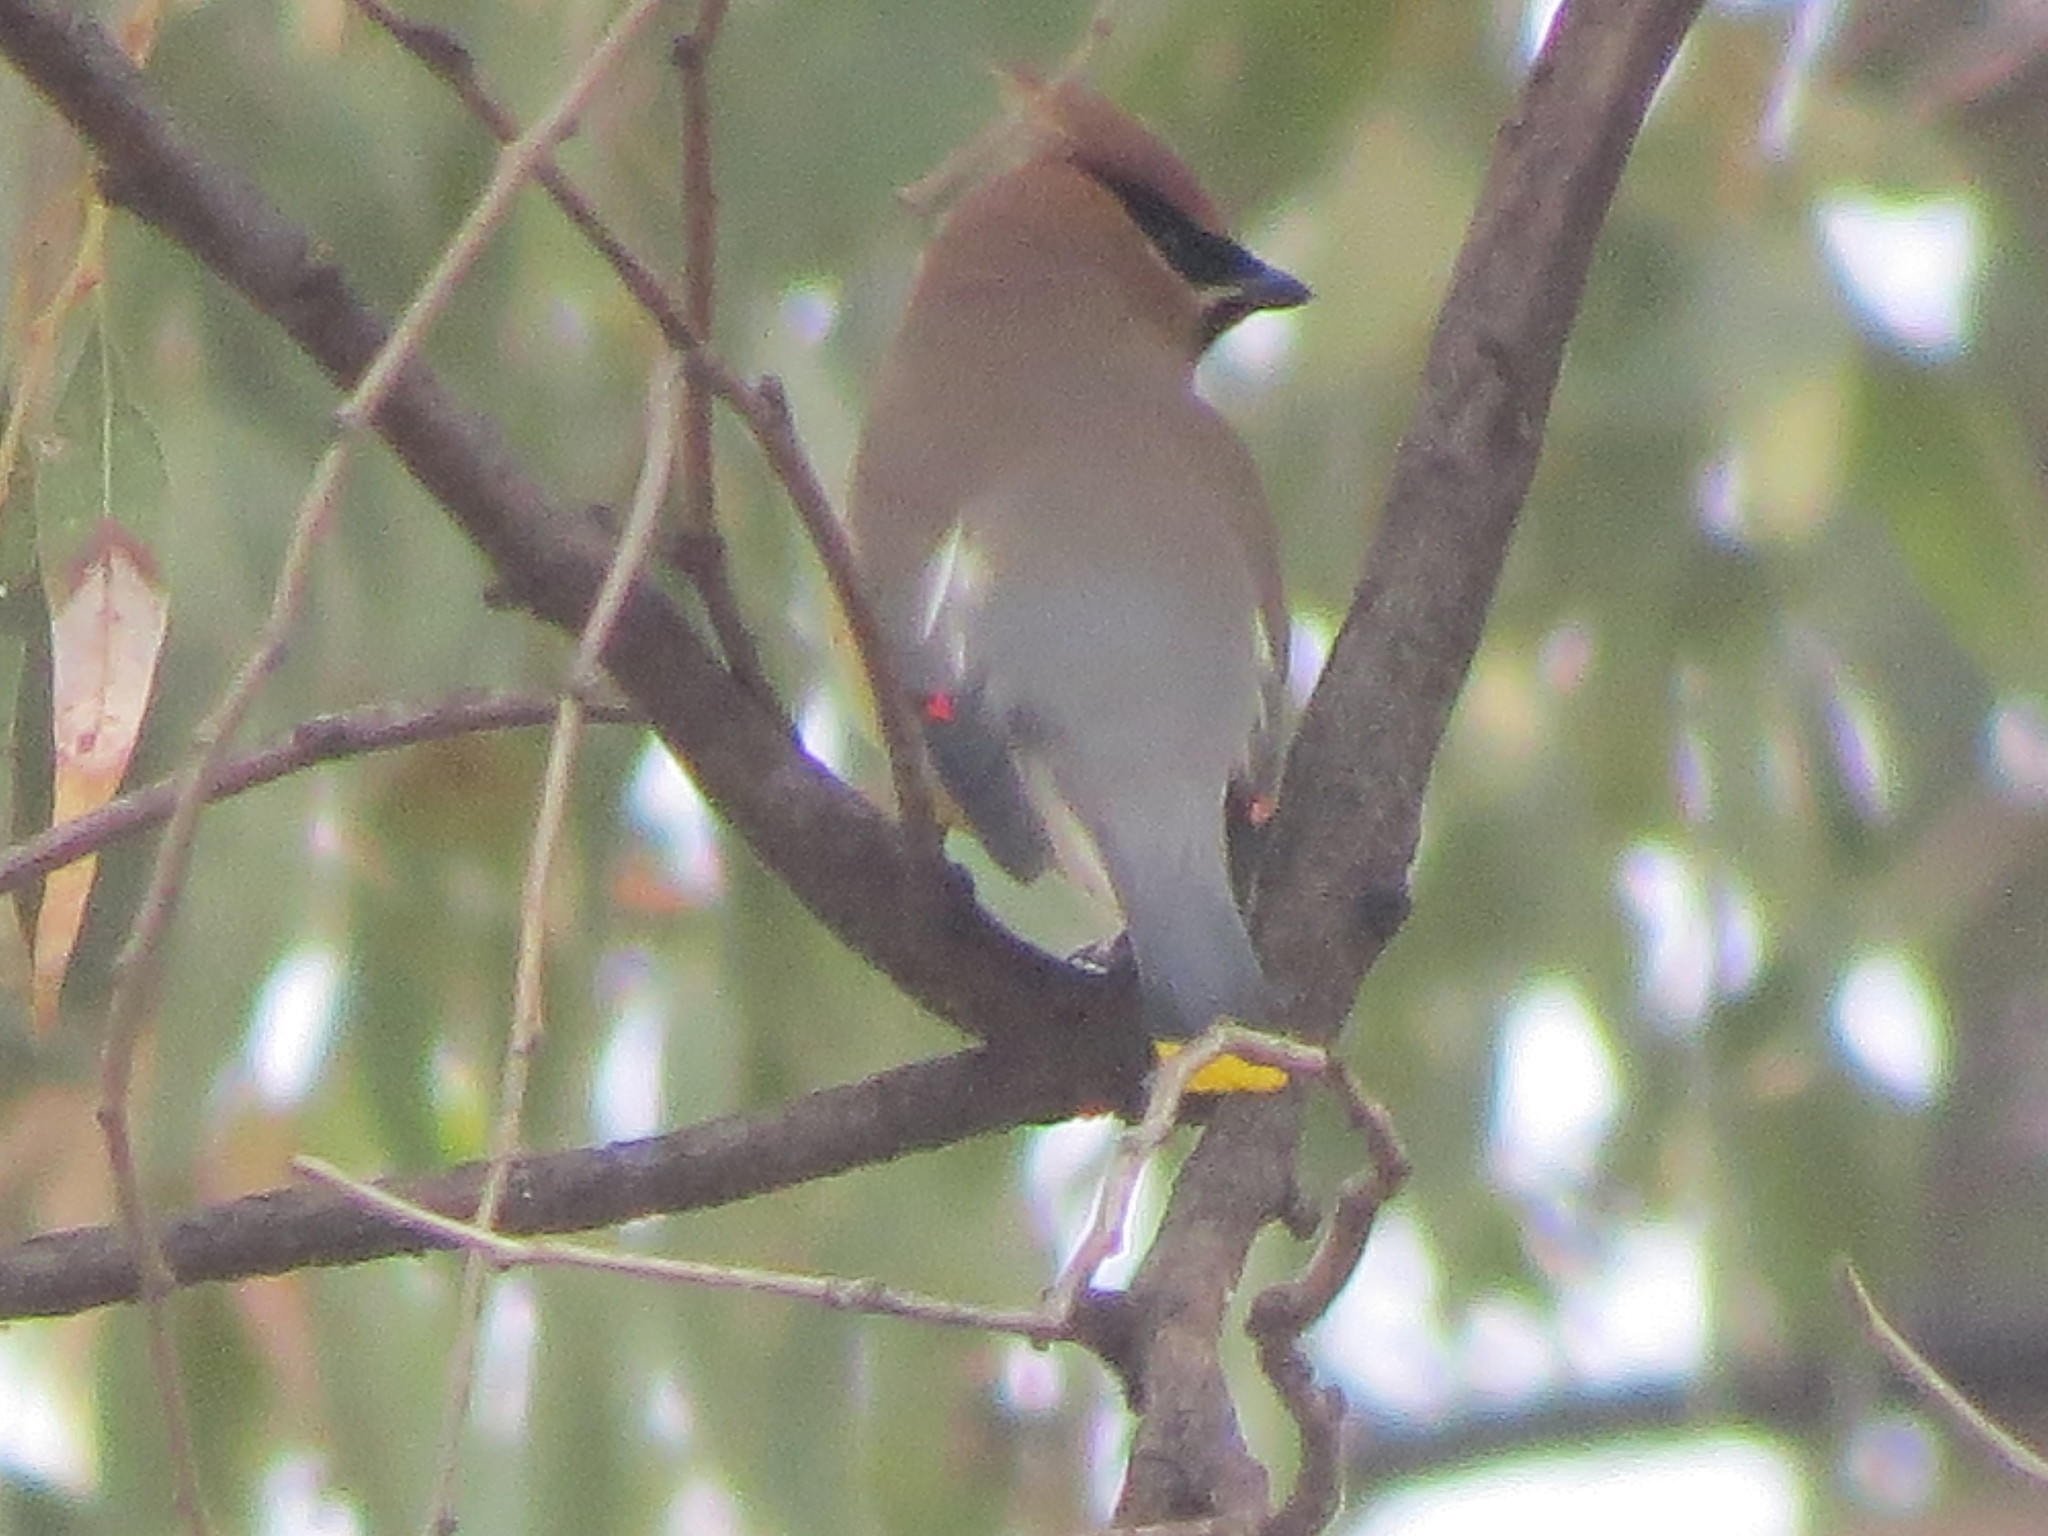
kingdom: Animalia
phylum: Chordata
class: Aves
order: Passeriformes
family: Bombycillidae
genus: Bombycilla
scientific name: Bombycilla cedrorum
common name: Cedar waxwing
